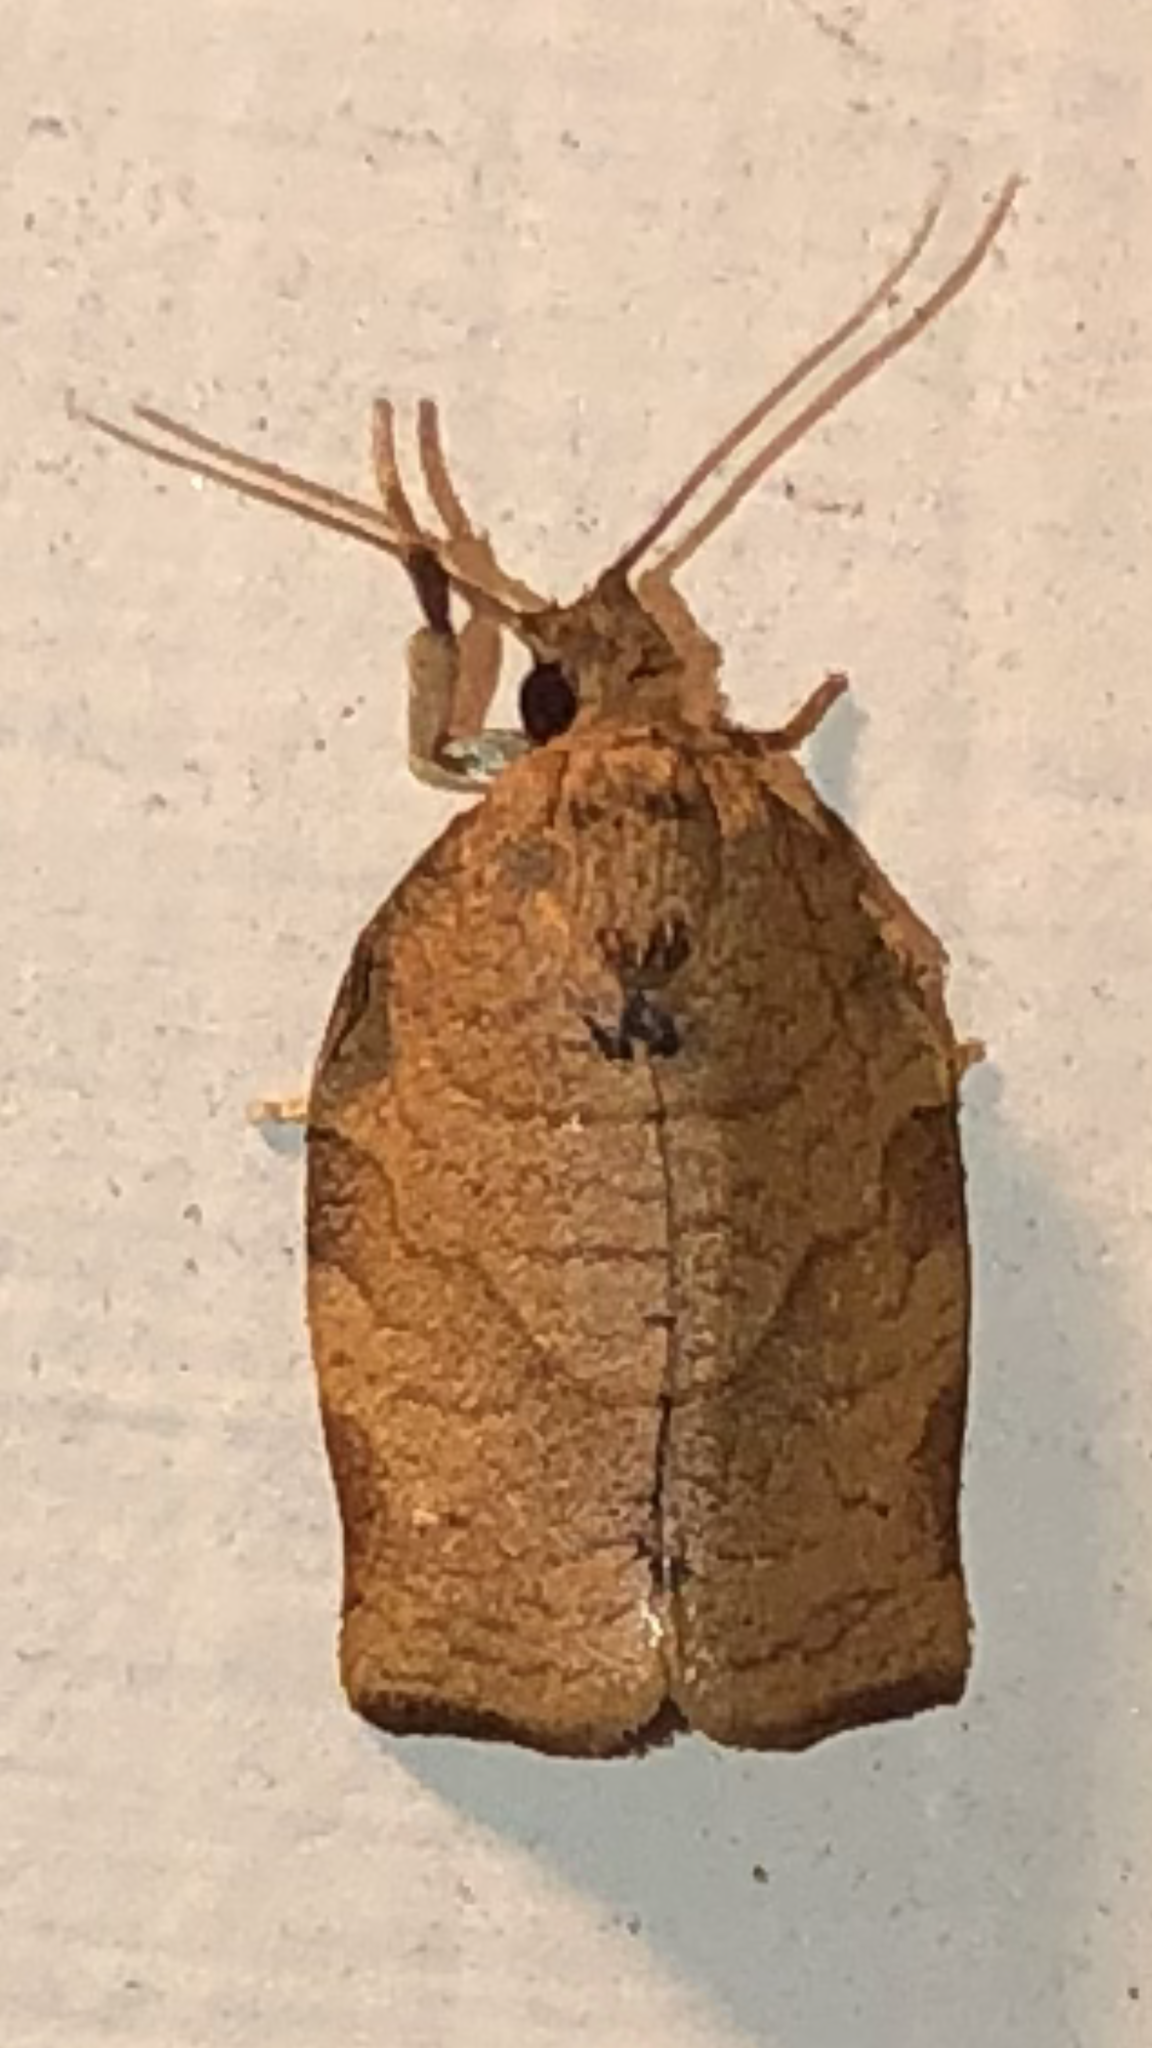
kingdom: Animalia
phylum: Arthropoda
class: Insecta
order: Lepidoptera
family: Tortricidae
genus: Choristoneura
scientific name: Choristoneura rosaceana
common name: Oblique-banded leafroller moth
